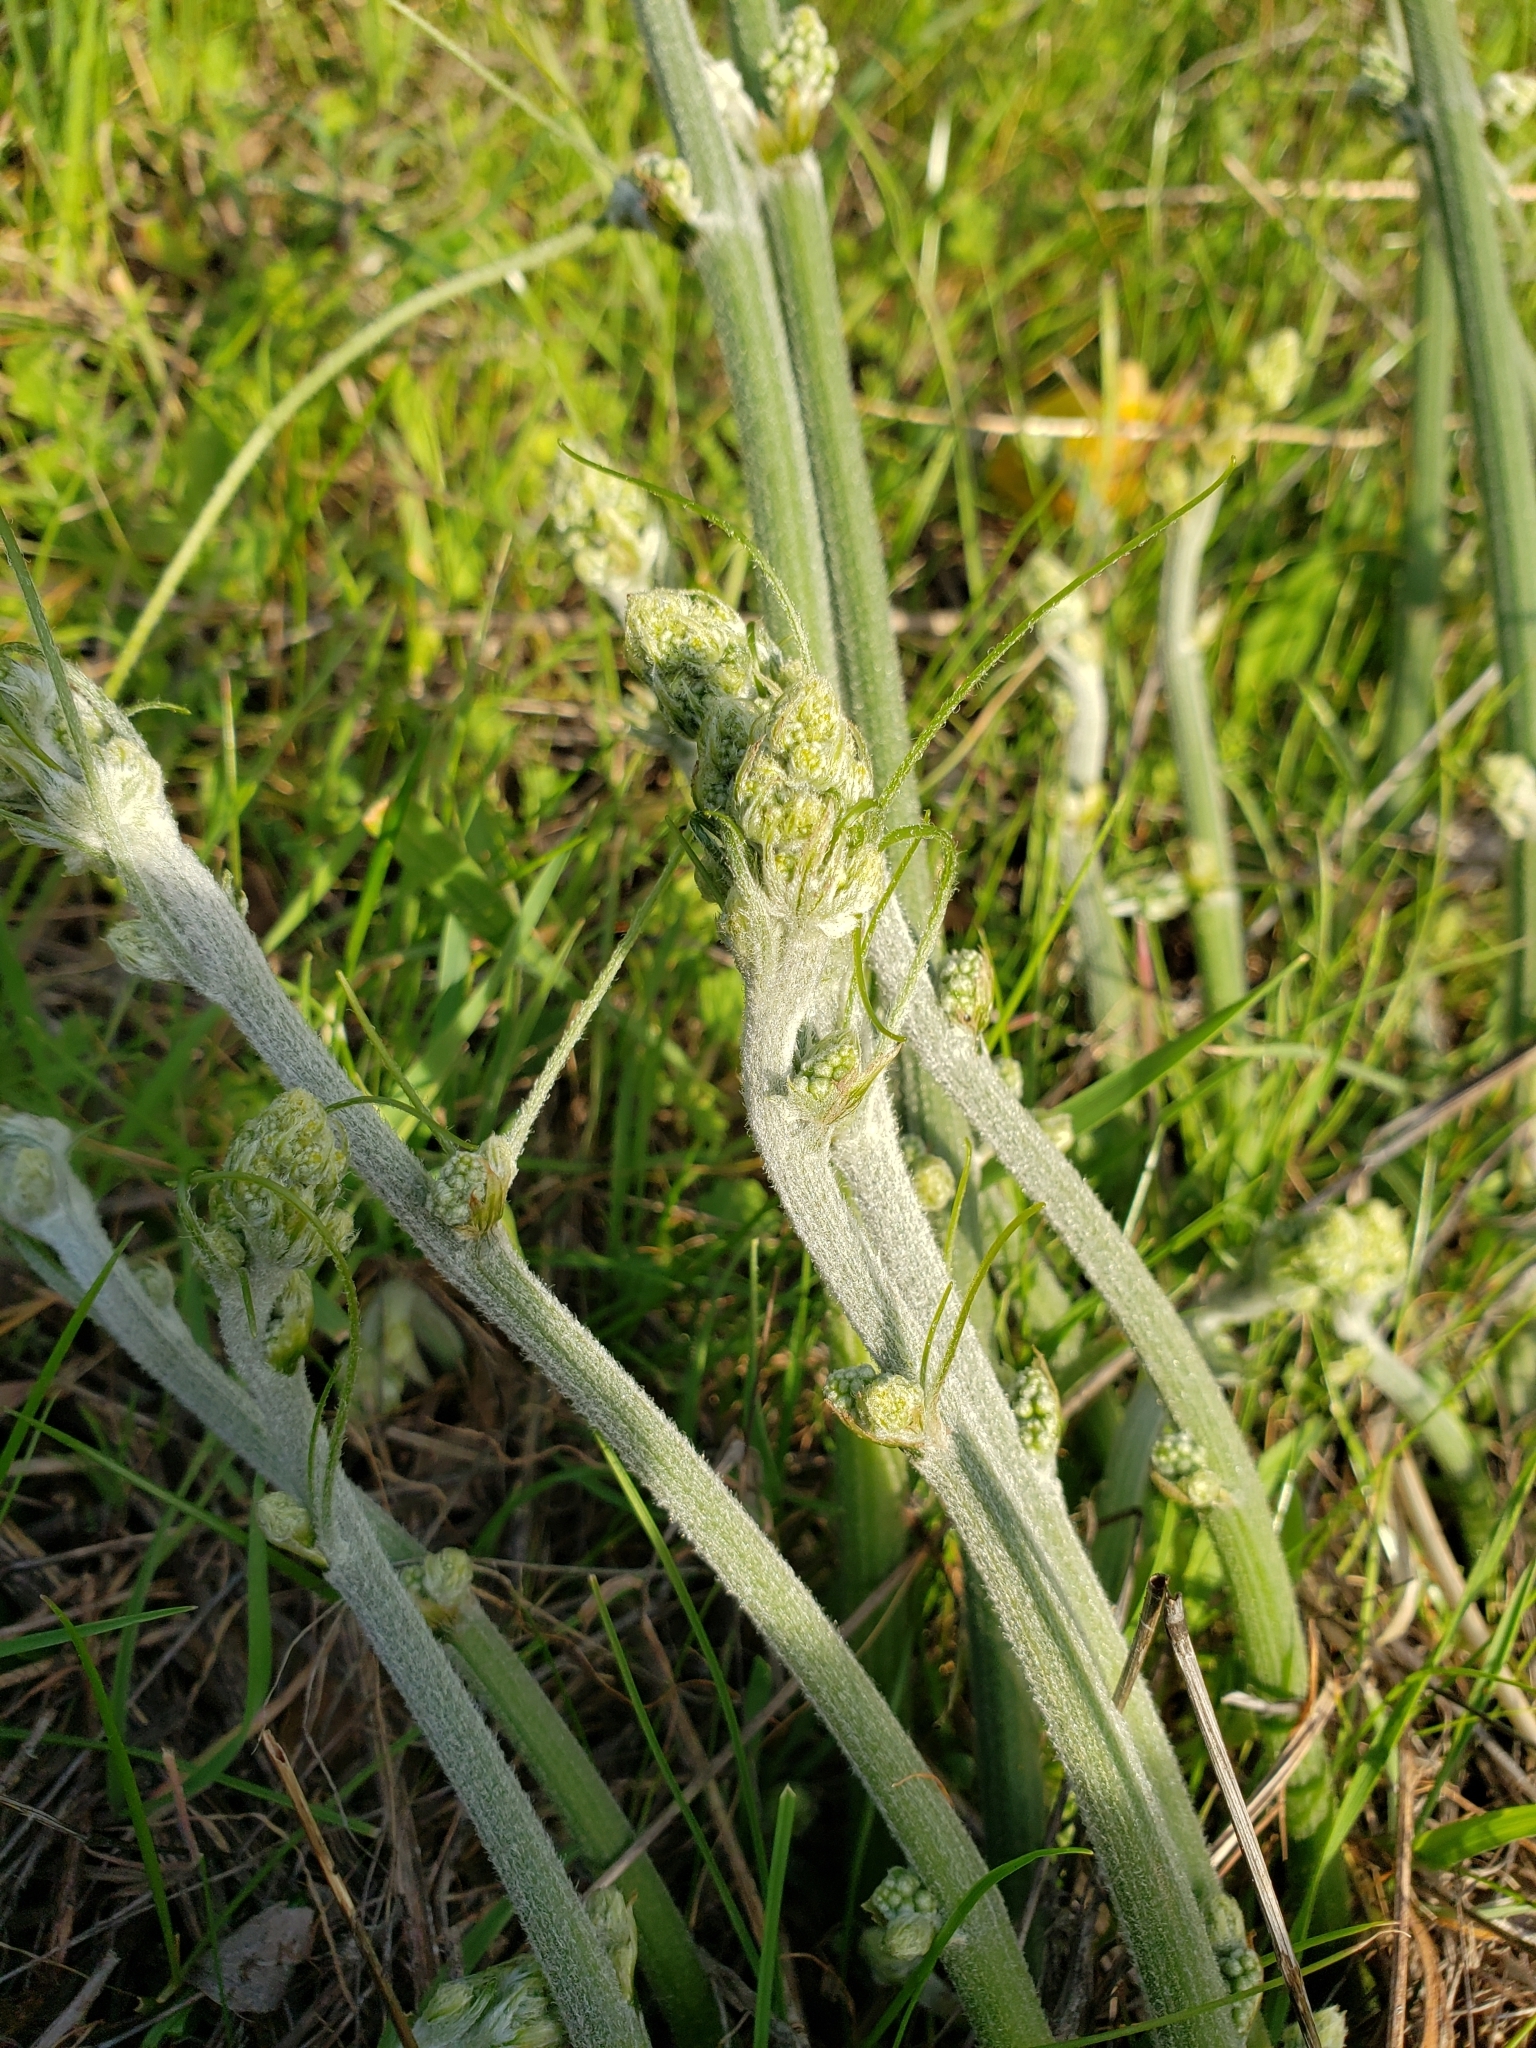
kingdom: Plantae
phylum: Tracheophyta
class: Magnoliopsida
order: Cucurbitales
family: Cucurbitaceae
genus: Marah
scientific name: Marah fabacea
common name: California manroot
